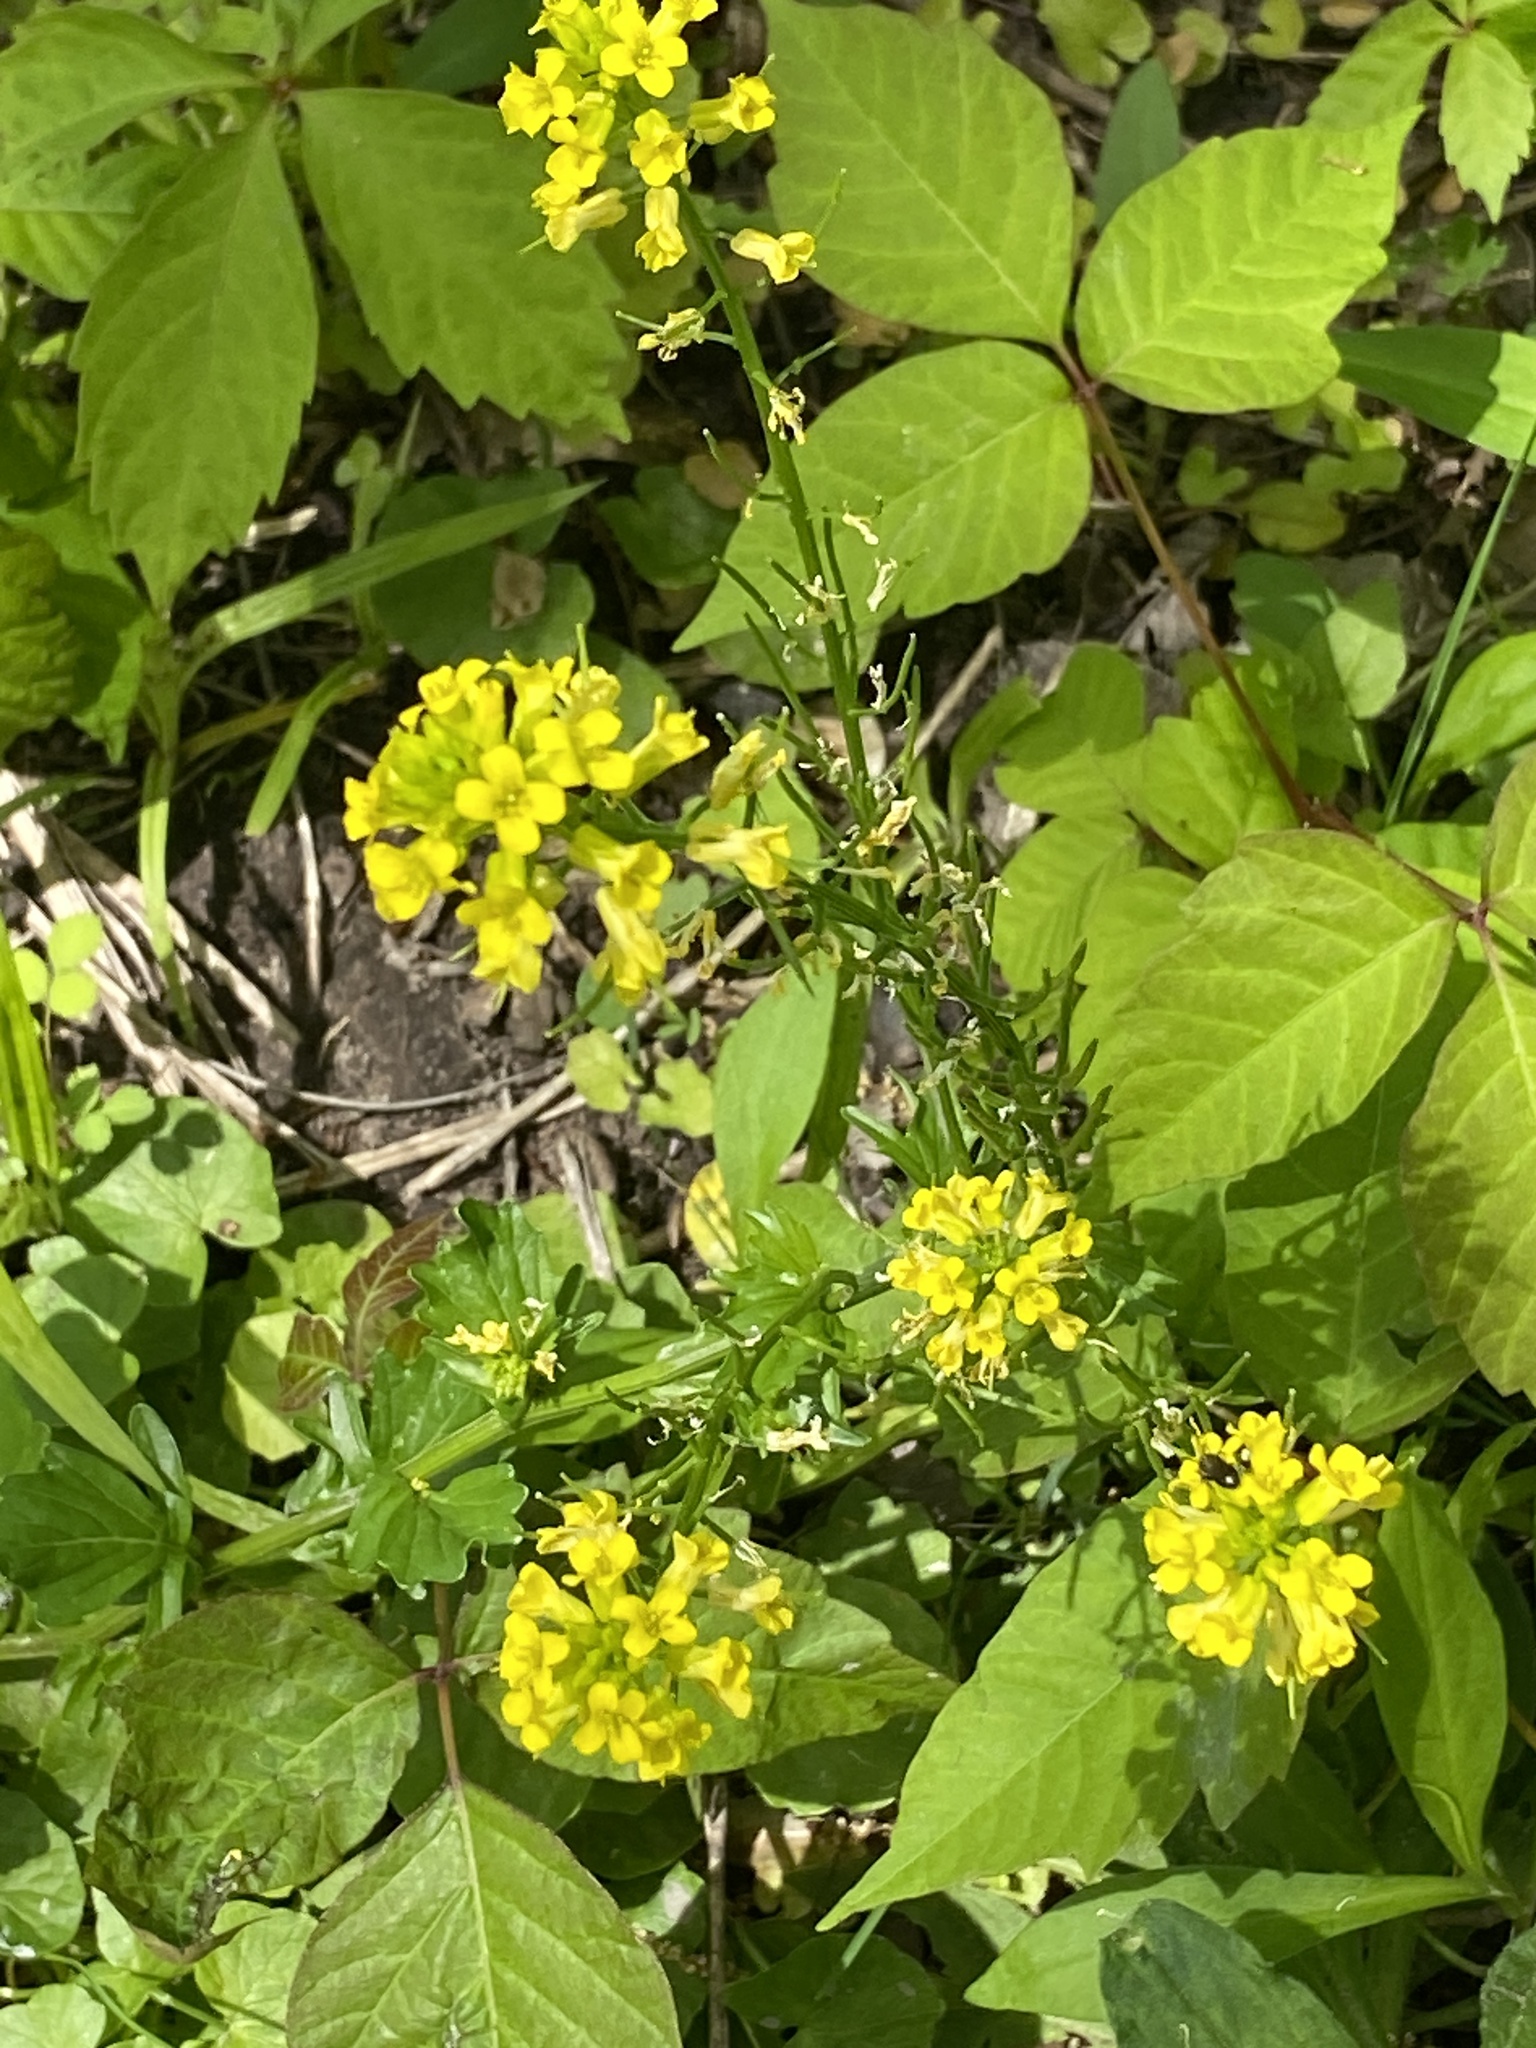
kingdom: Plantae
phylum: Tracheophyta
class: Magnoliopsida
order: Brassicales
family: Brassicaceae
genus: Barbarea
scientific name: Barbarea vulgaris
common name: Cressy-greens
